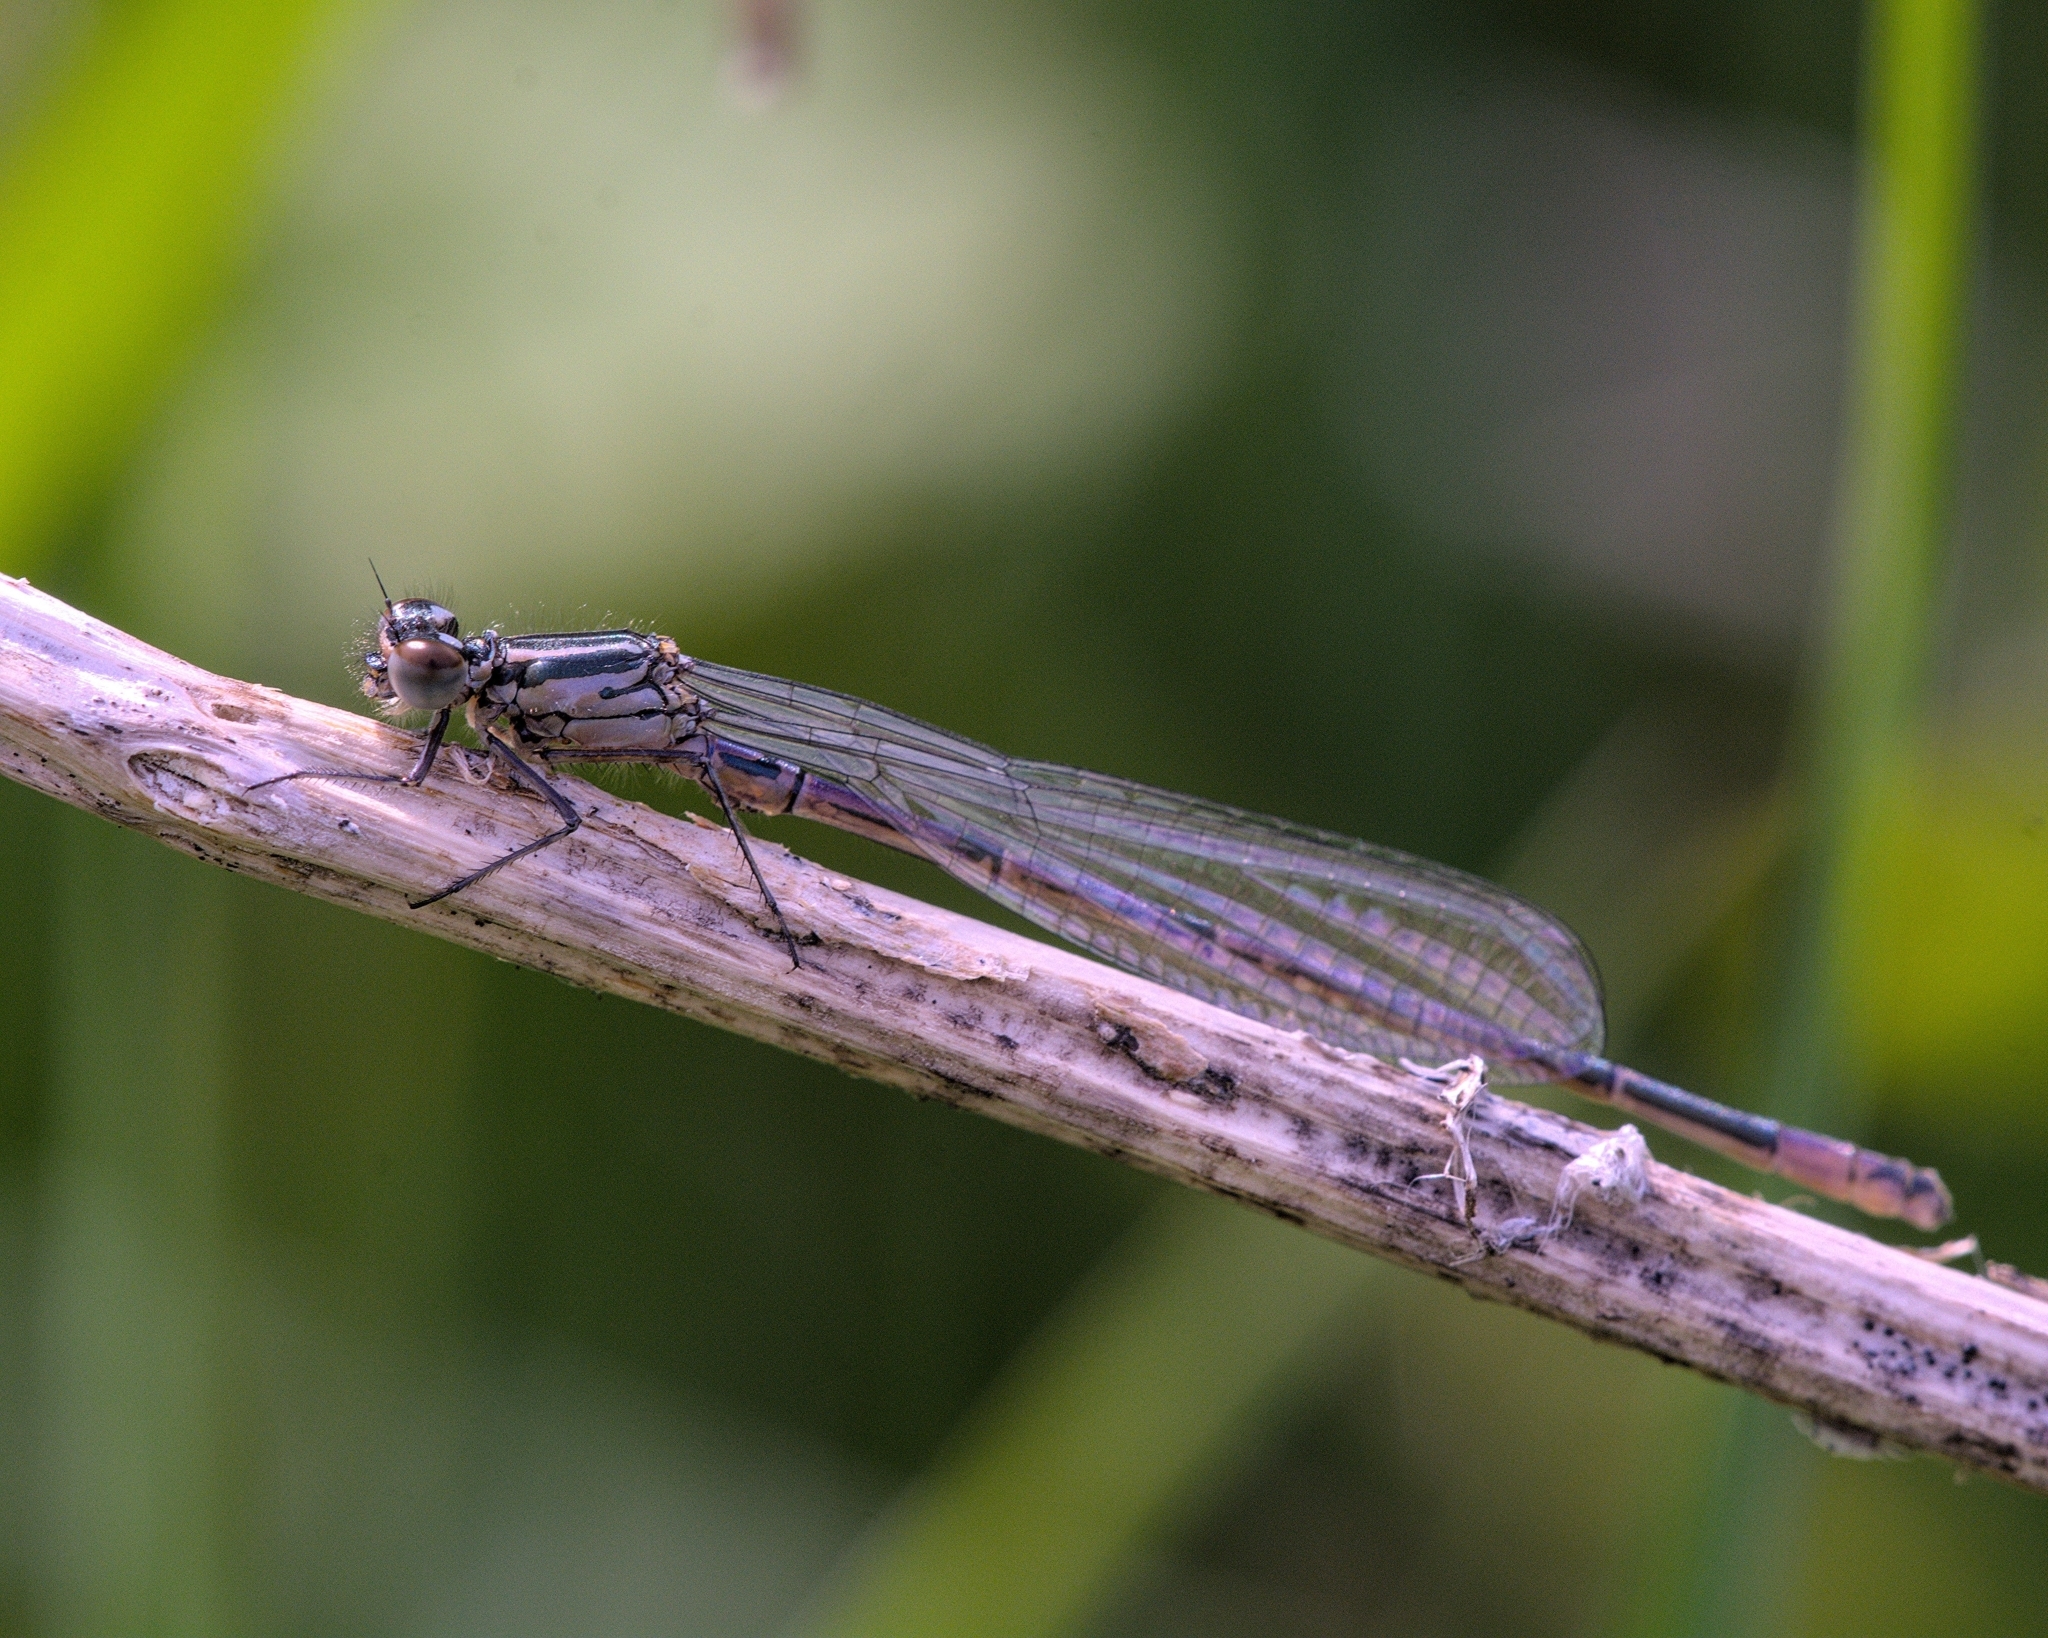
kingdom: Animalia
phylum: Arthropoda
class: Insecta
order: Odonata
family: Coenagrionidae
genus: Coenagrion
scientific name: Coenagrion puella
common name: Azure damselfly
